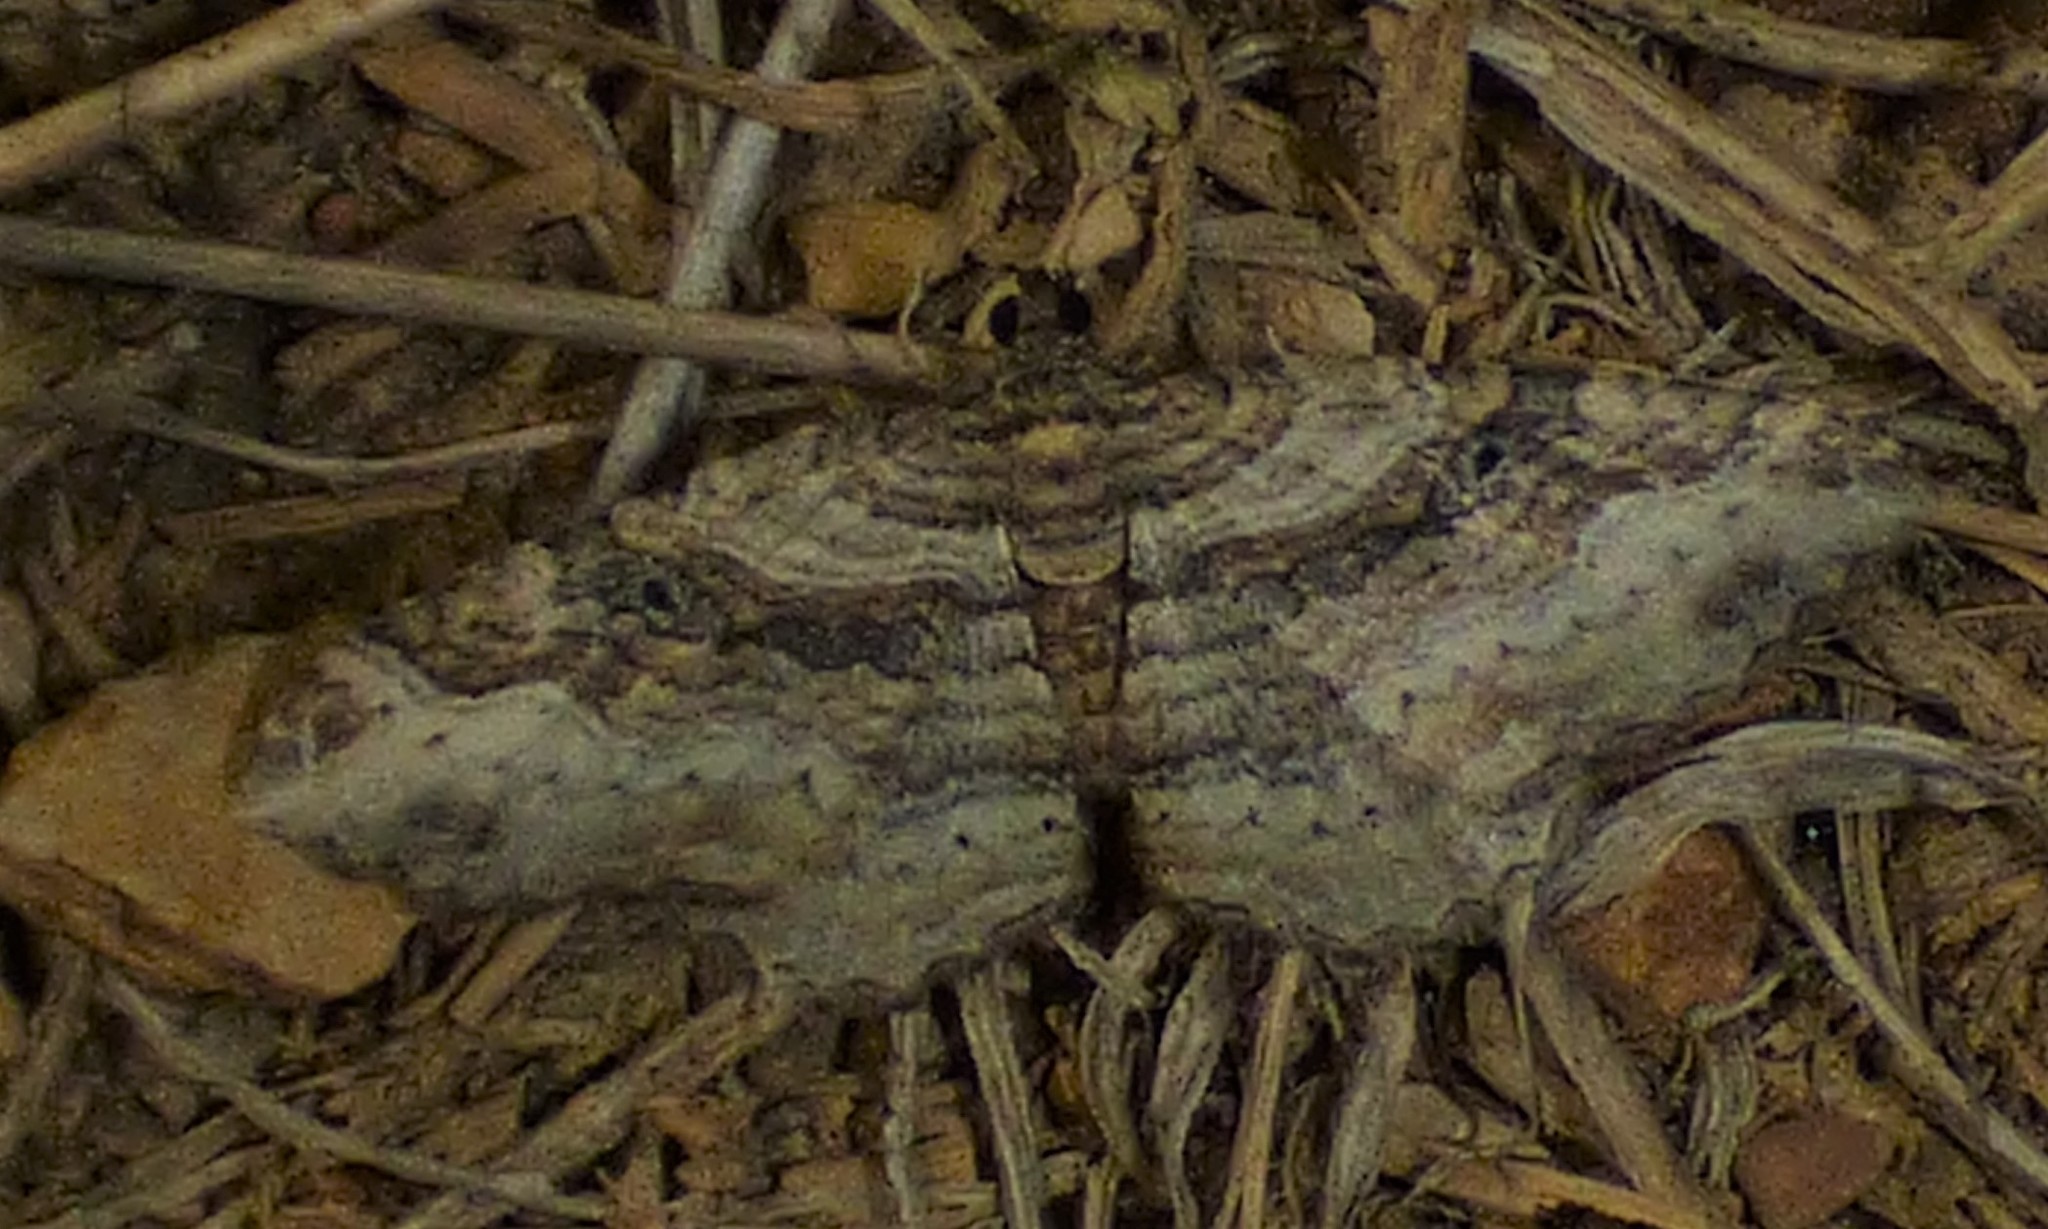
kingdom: Animalia
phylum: Arthropoda
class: Insecta
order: Lepidoptera
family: Geometridae
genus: Costaconvexa
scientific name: Costaconvexa centrostrigaria
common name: Bent-line carpet
